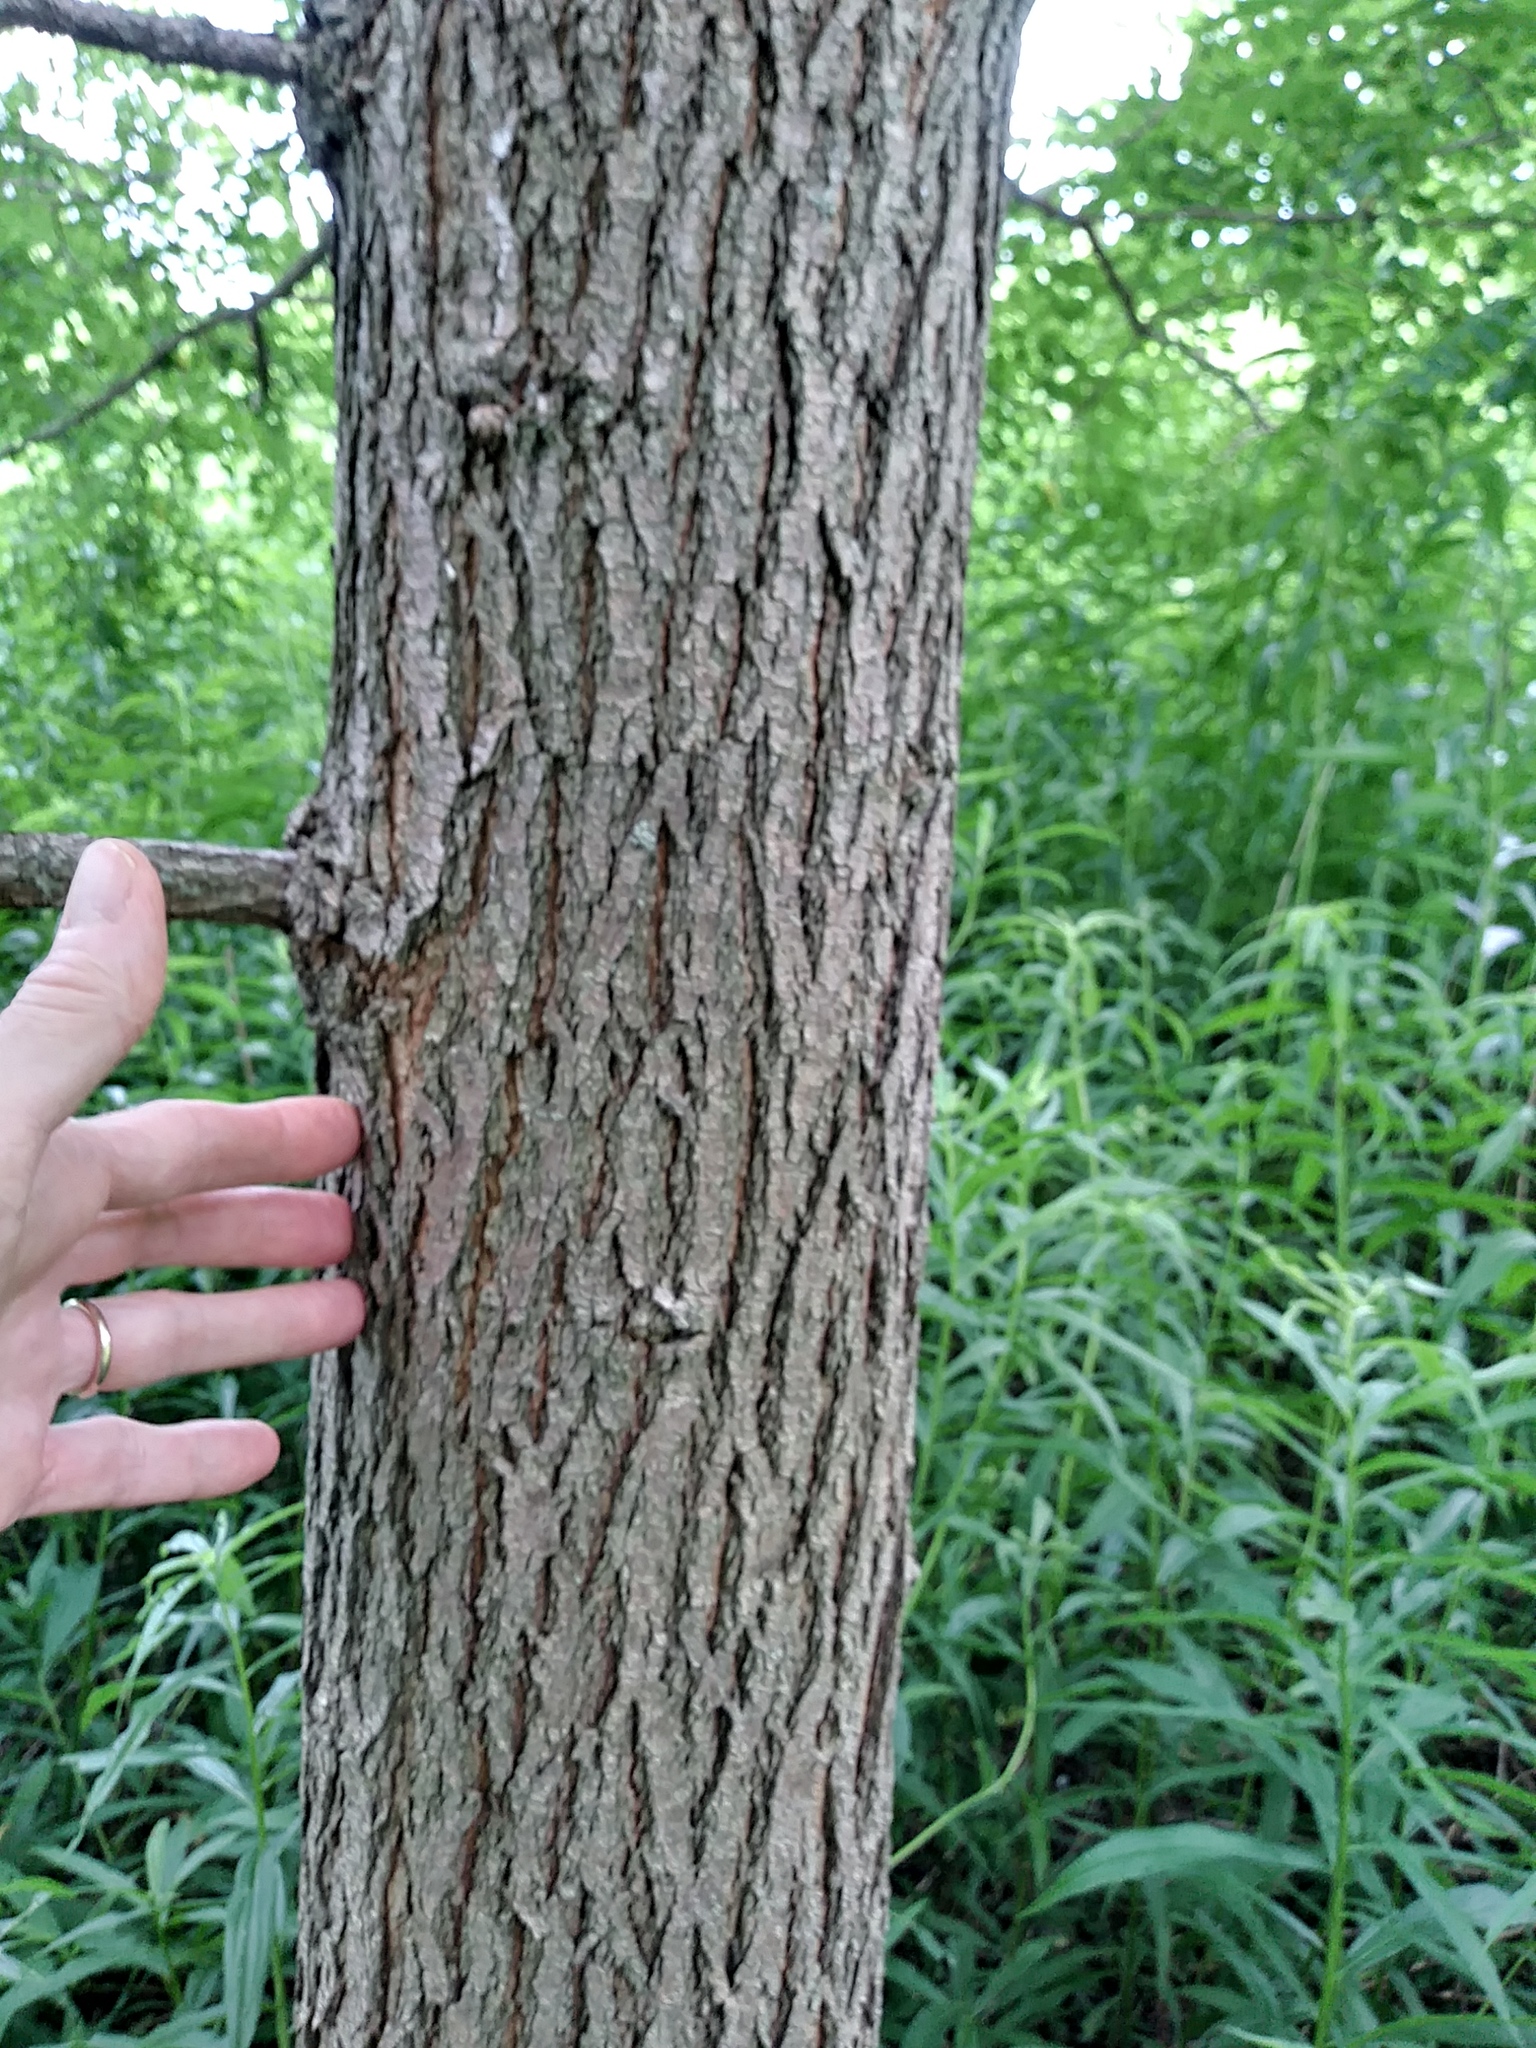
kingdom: Plantae
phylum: Tracheophyta
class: Magnoliopsida
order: Fabales
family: Fabaceae
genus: Robinia
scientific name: Robinia pseudoacacia
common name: Black locust
